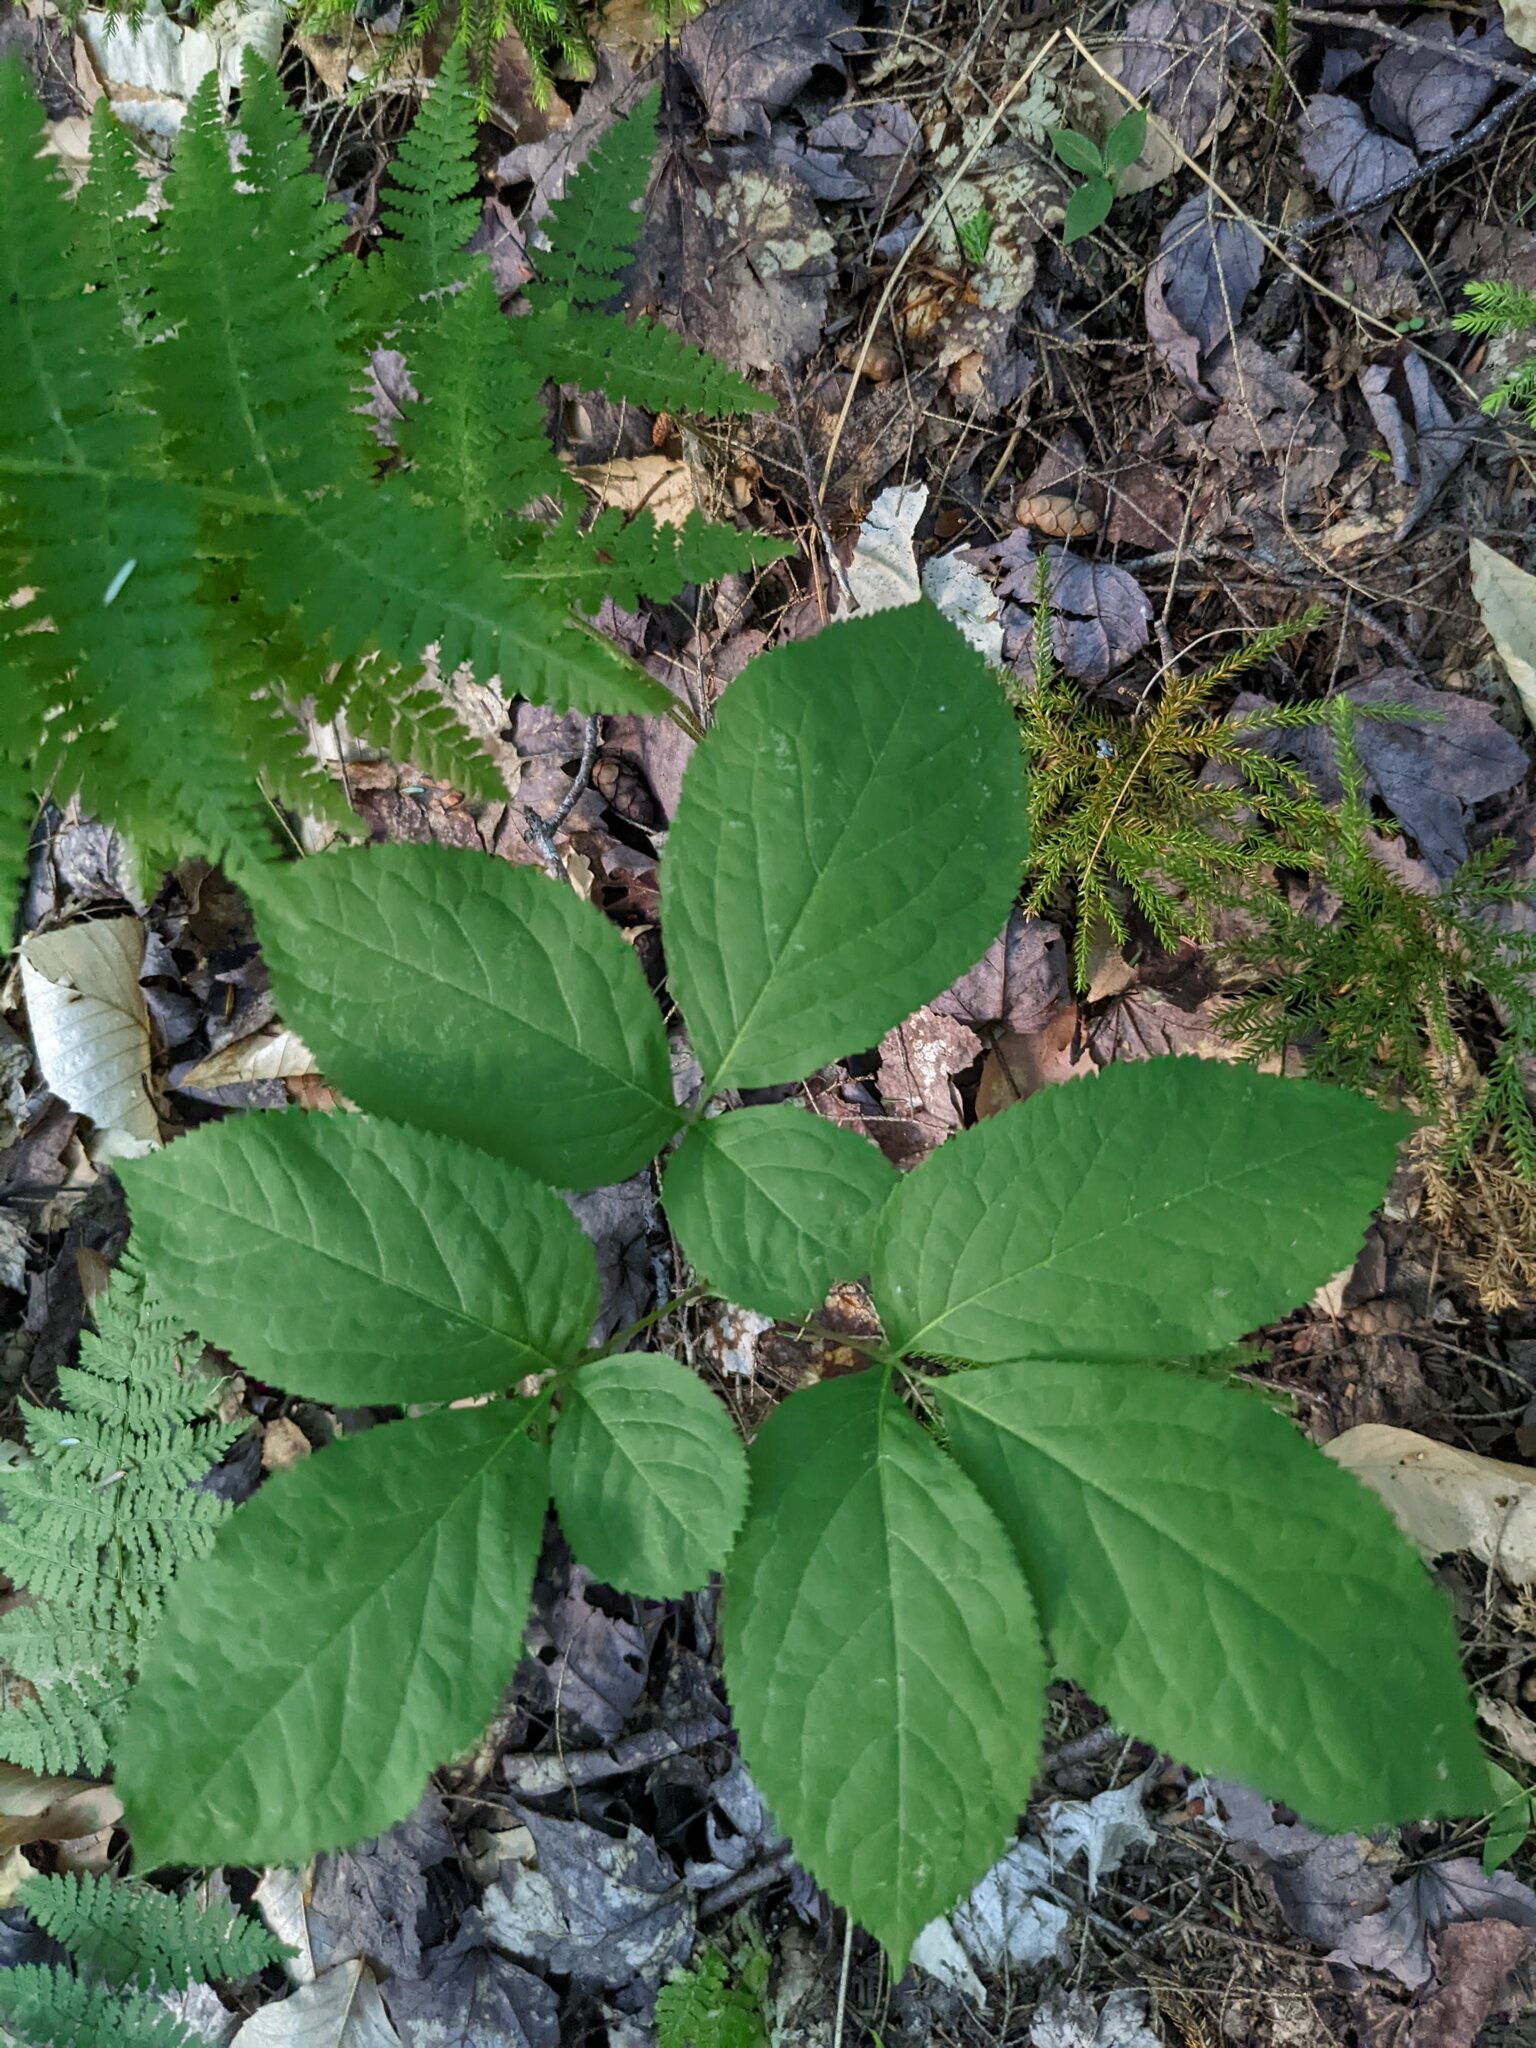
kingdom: Plantae
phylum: Tracheophyta
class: Magnoliopsida
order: Apiales
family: Araliaceae
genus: Aralia
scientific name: Aralia nudicaulis
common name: Wild sarsaparilla
